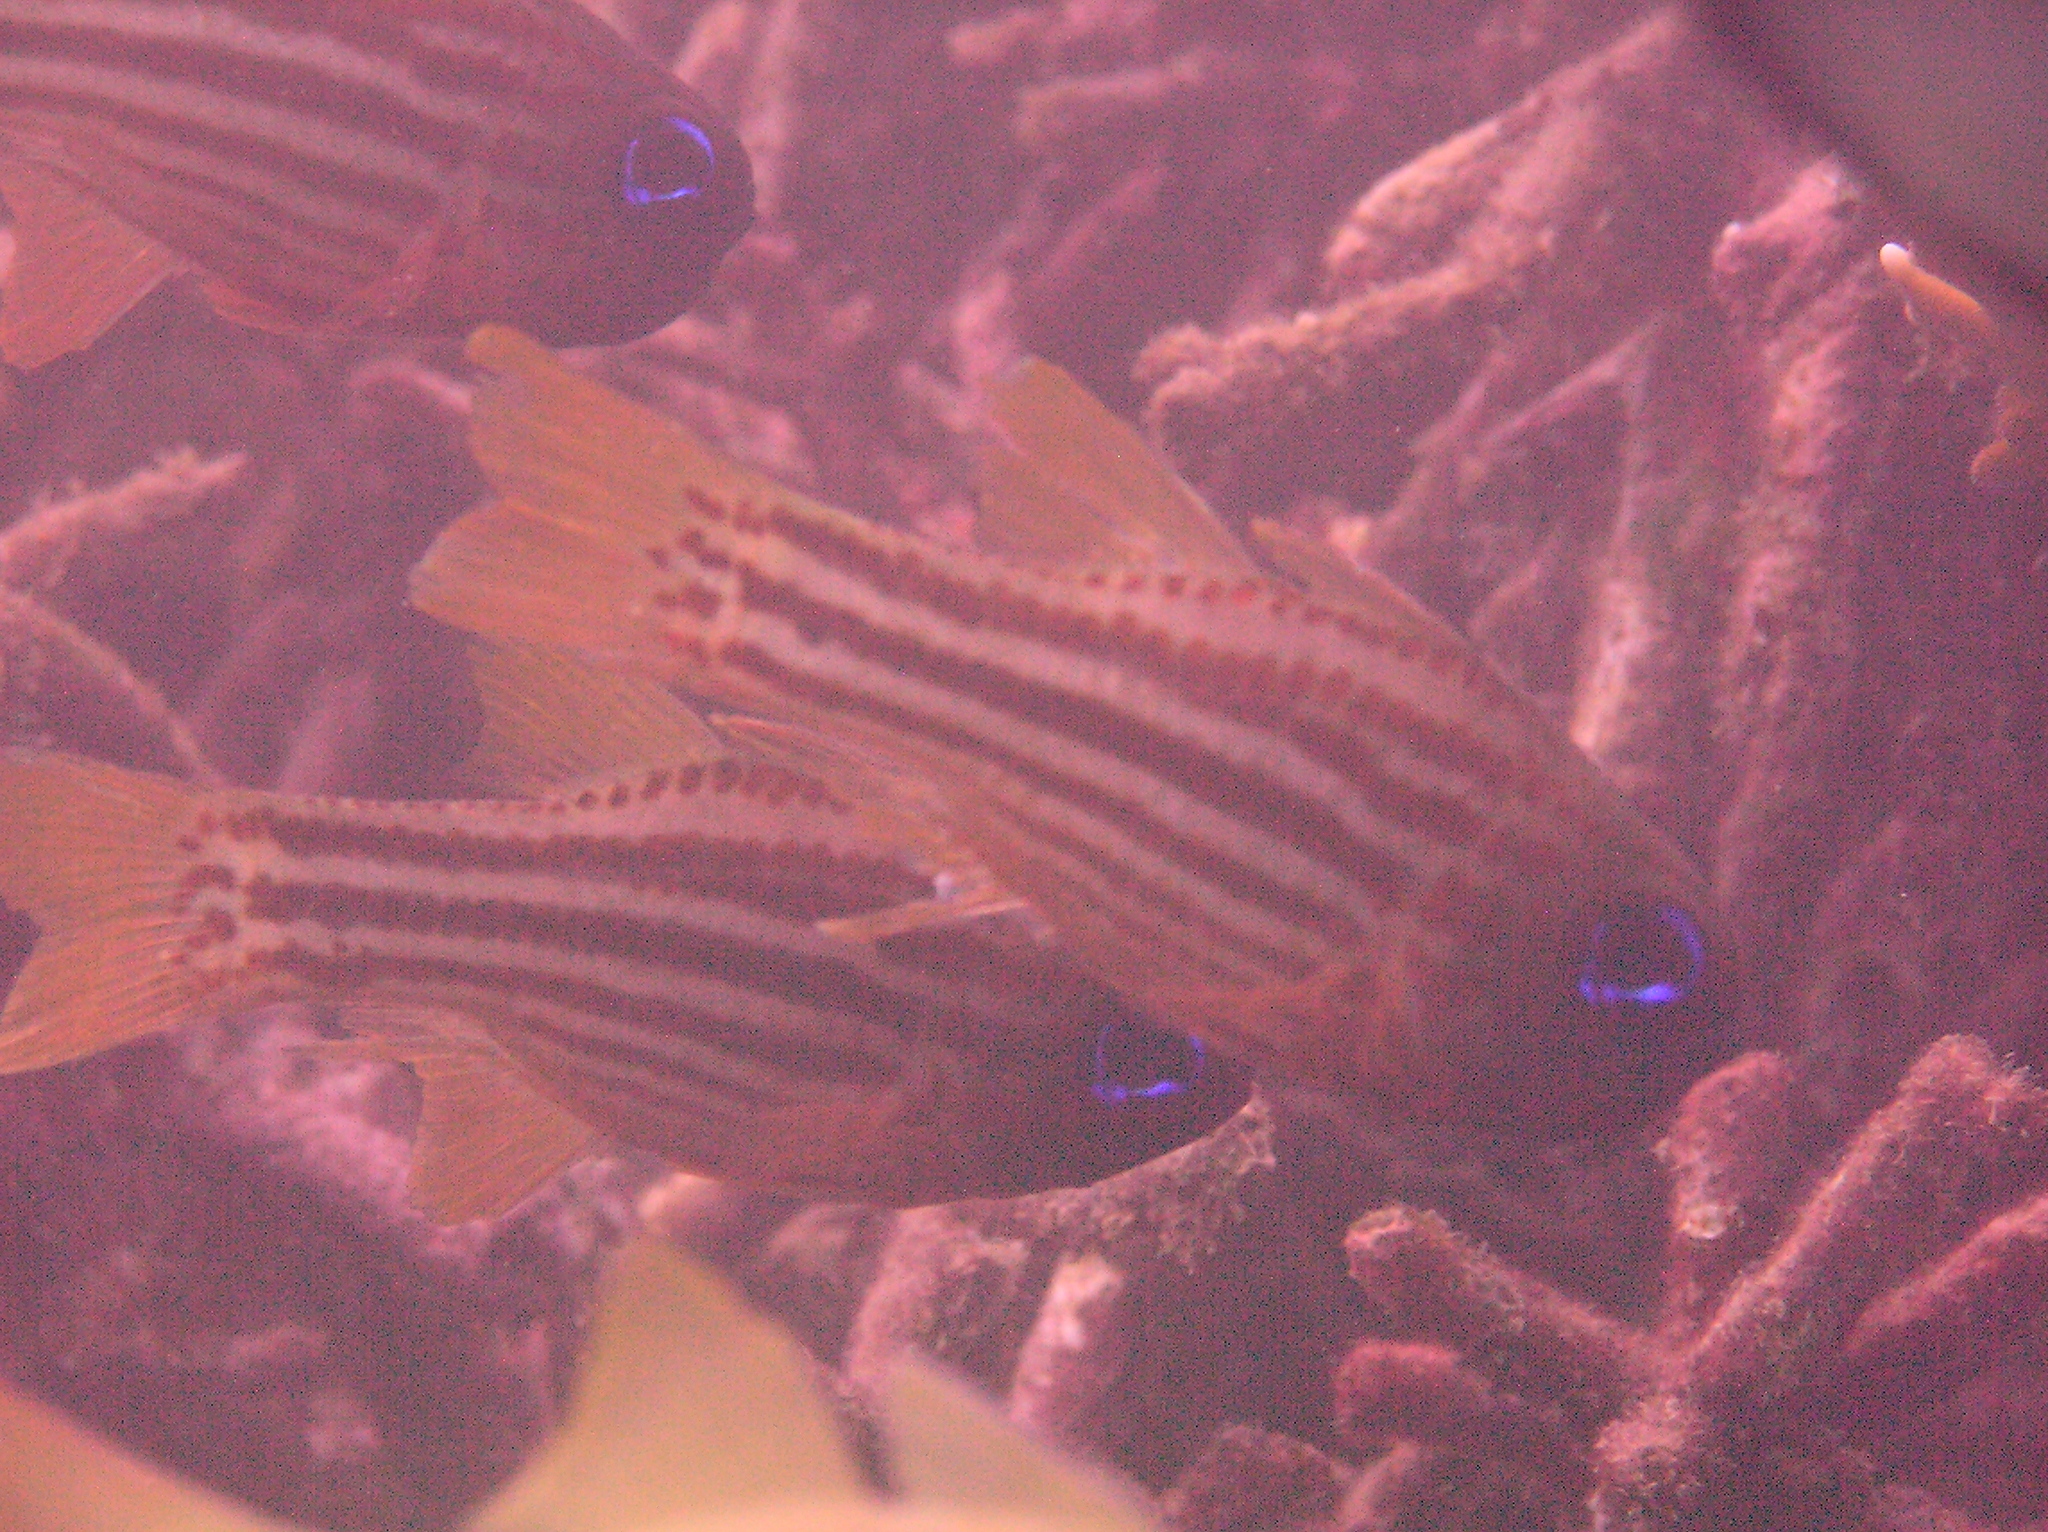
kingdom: Animalia
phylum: Chordata
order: Perciformes
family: Apogonidae
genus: Ostorhinchus
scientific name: Ostorhinchus compressus
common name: Ochre-striped cardinalfish
